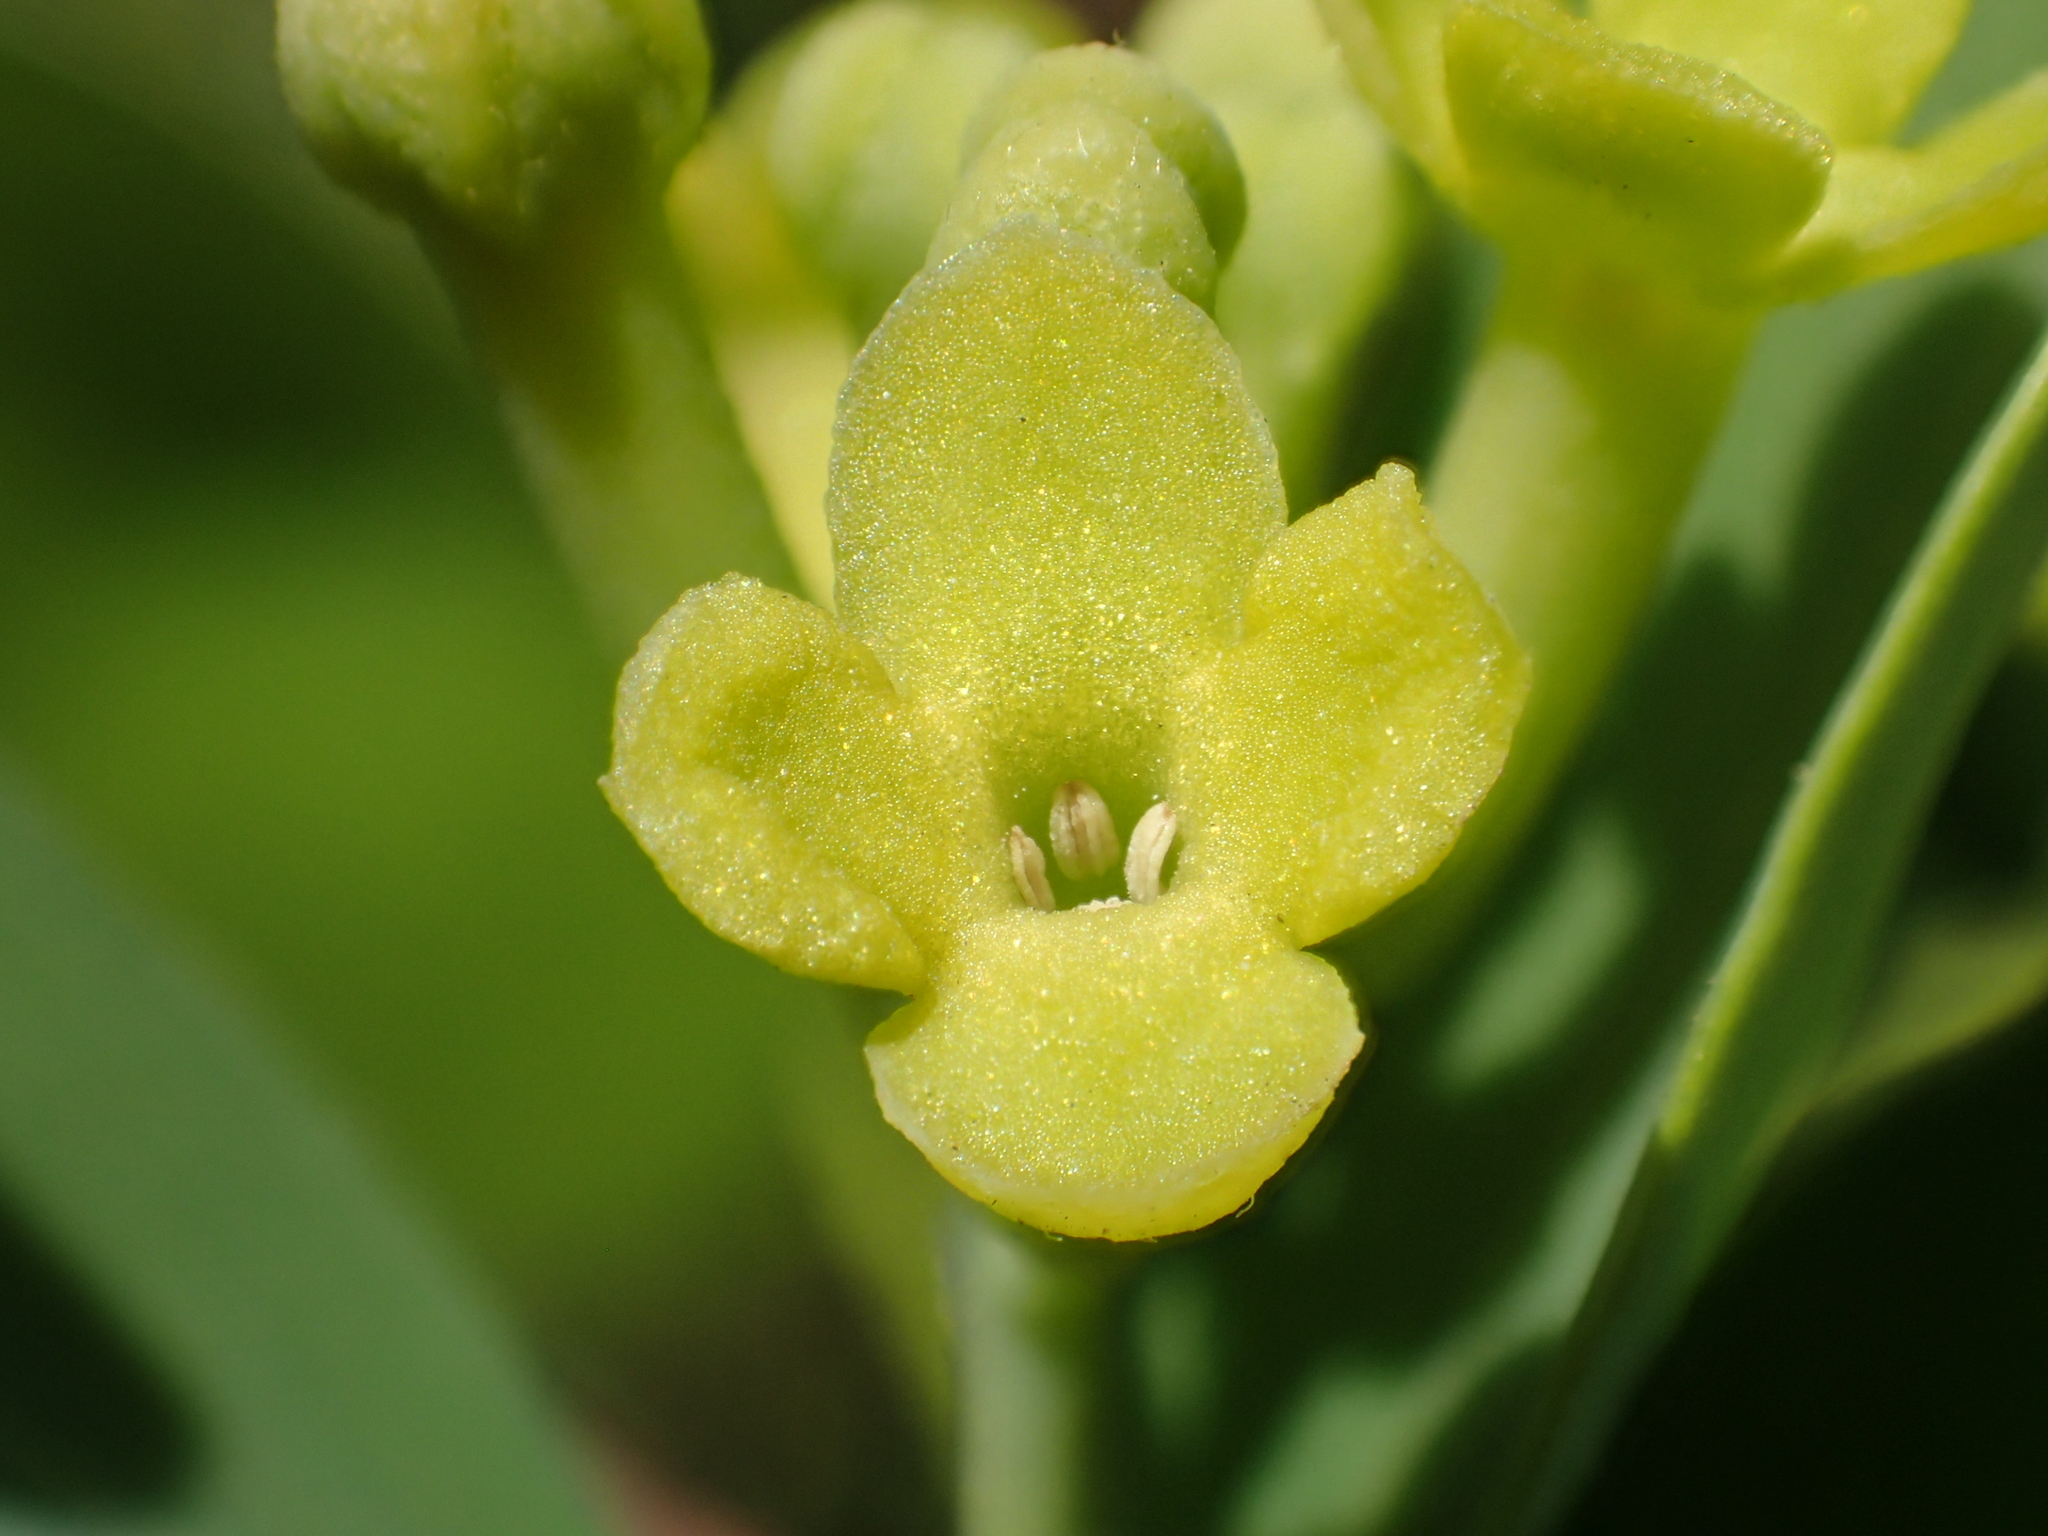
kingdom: Plantae
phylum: Tracheophyta
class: Magnoliopsida
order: Malvales
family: Thymelaeaceae
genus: Wikstroemia
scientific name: Wikstroemia indica
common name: Tiebush
